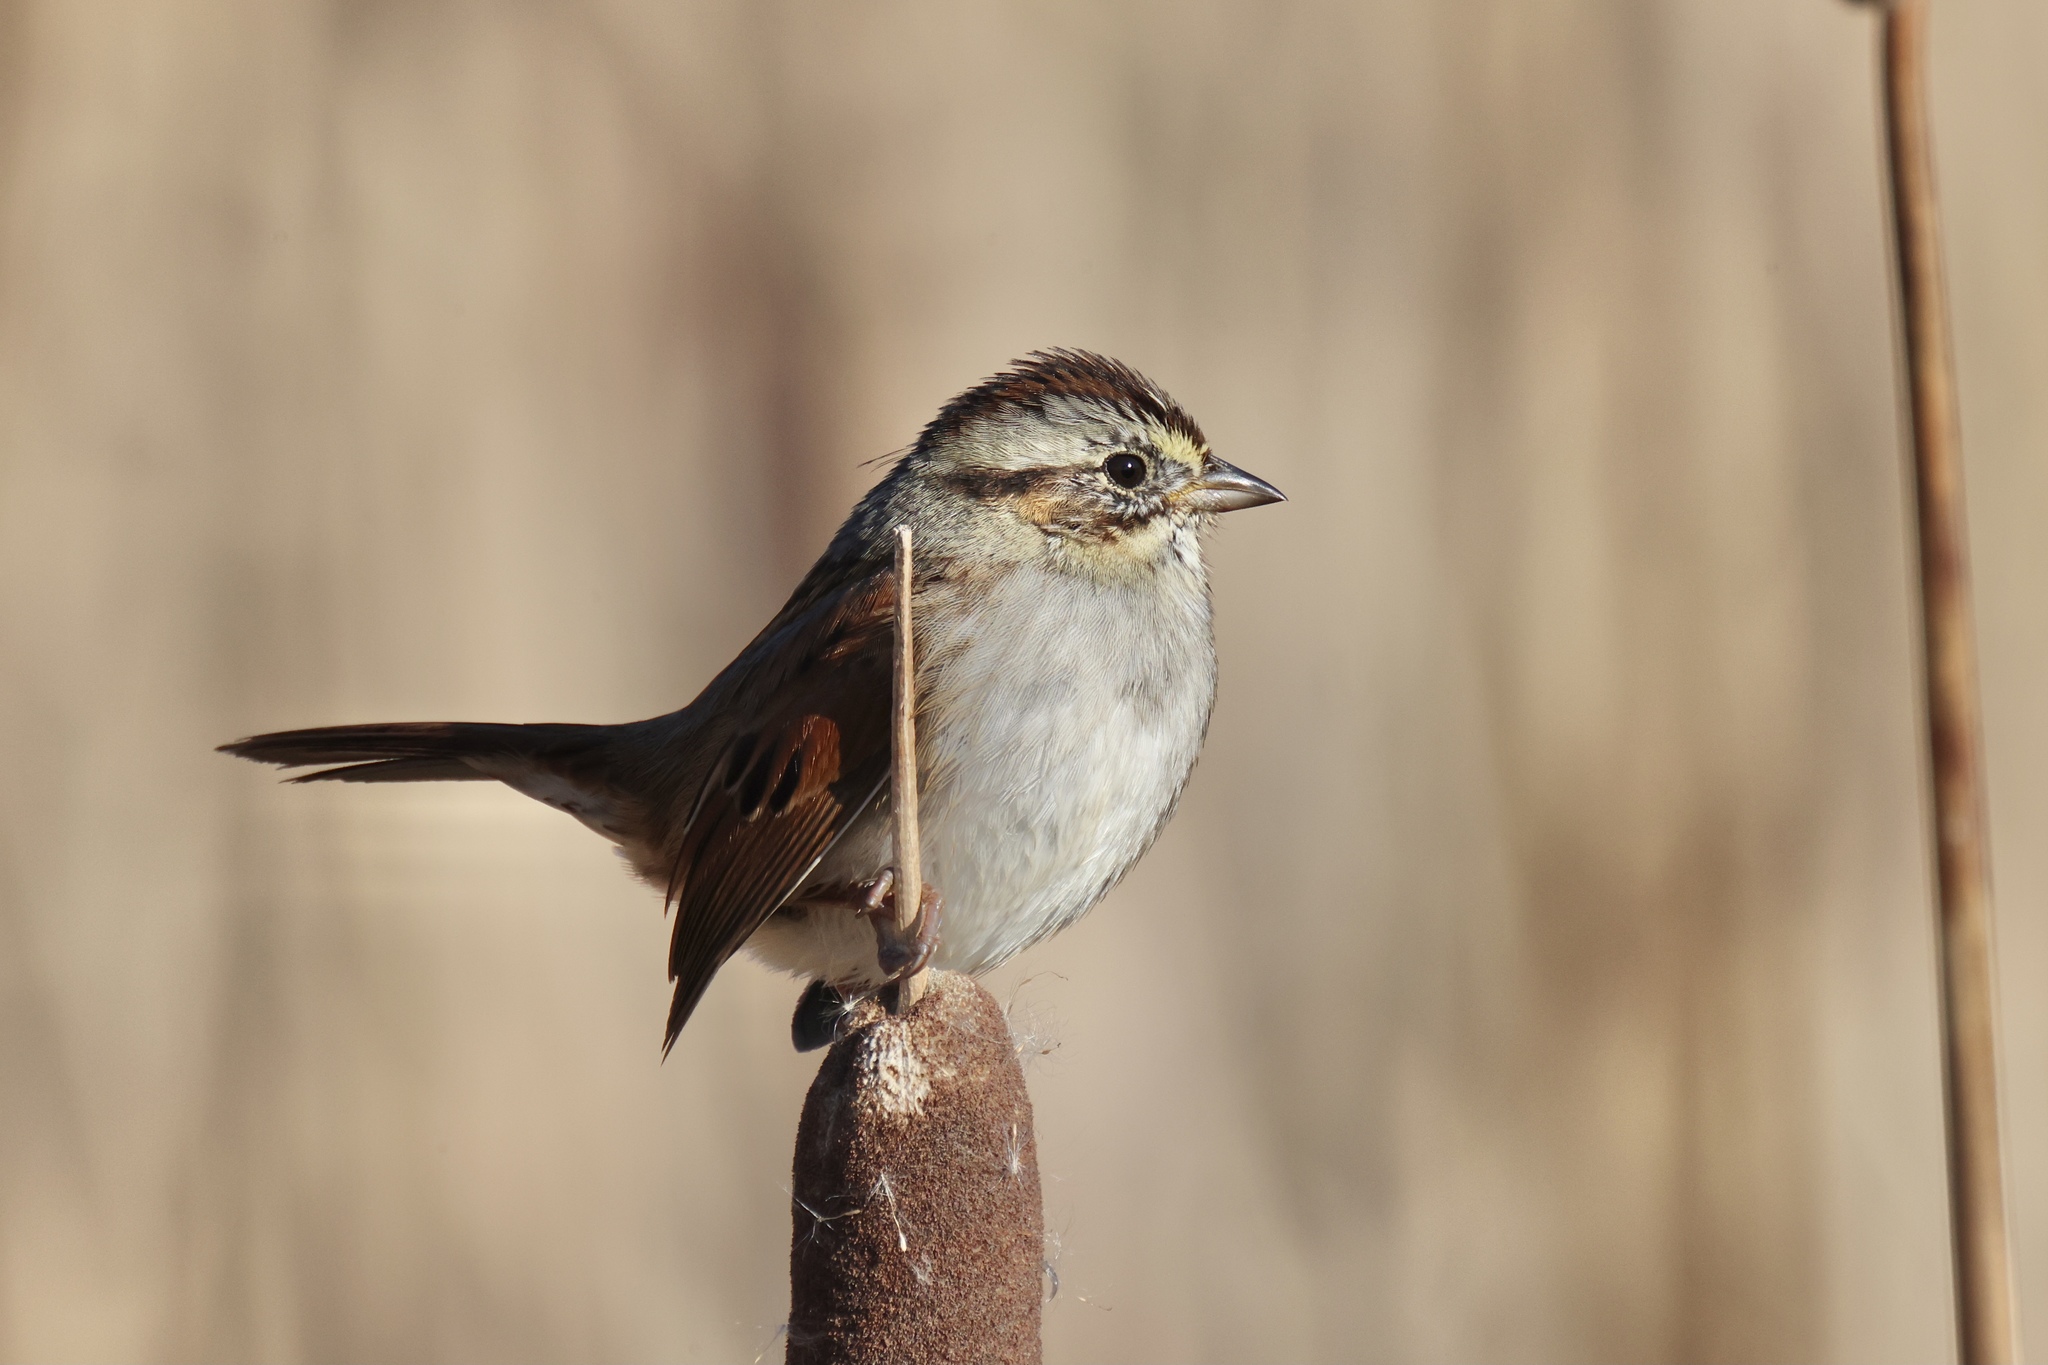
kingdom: Animalia
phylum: Chordata
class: Aves
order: Passeriformes
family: Passerellidae
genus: Melospiza
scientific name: Melospiza georgiana
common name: Swamp sparrow
